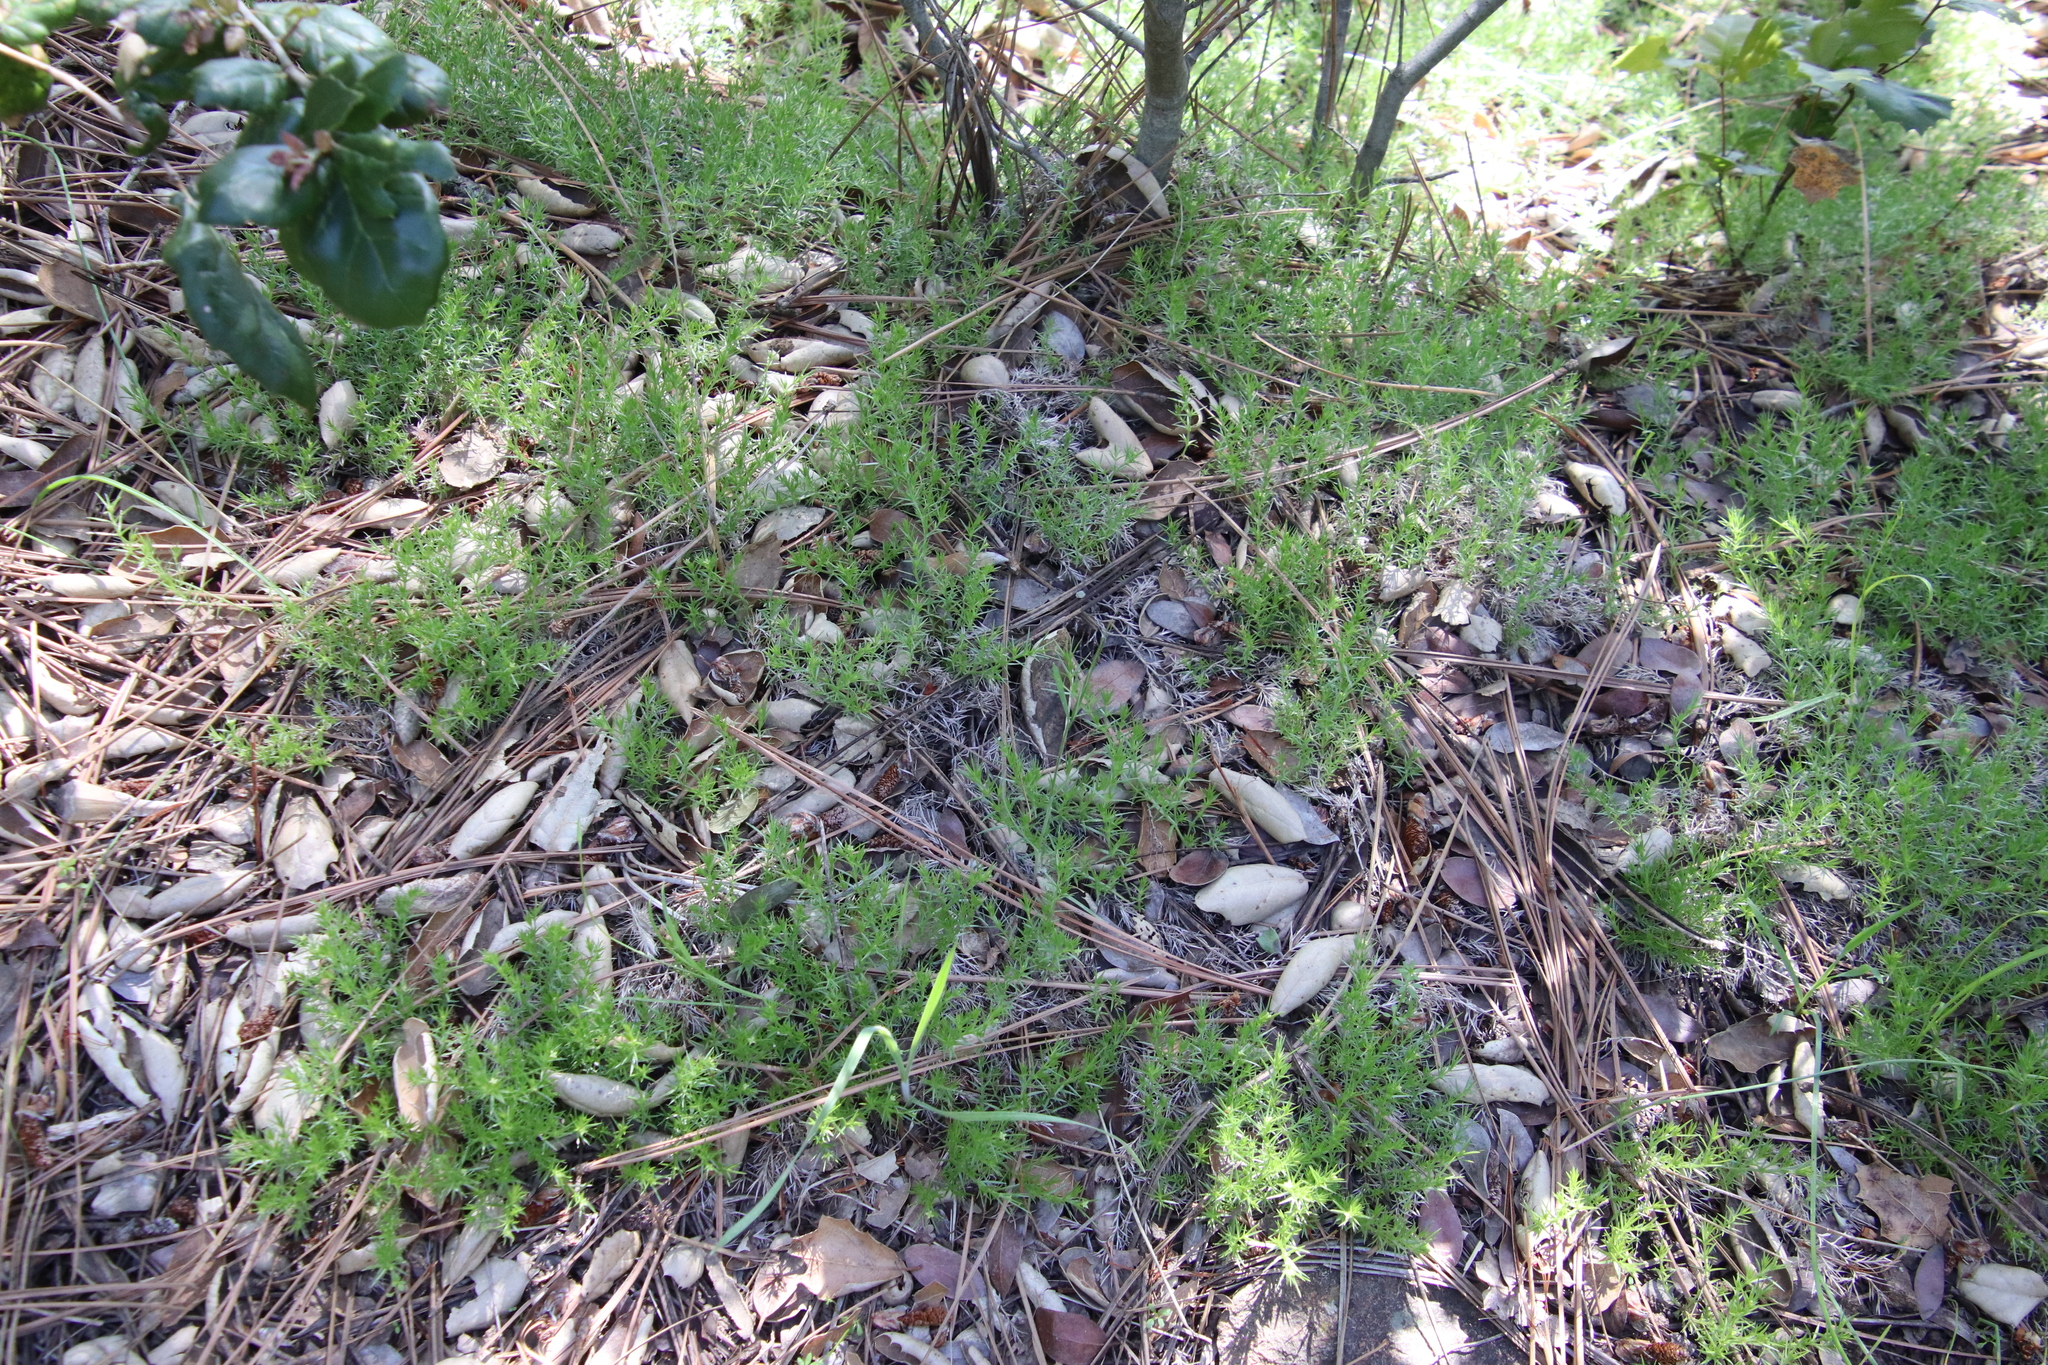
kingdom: Plantae
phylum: Tracheophyta
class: Magnoliopsida
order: Gentianales
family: Rubiaceae
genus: Galium
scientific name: Galium andrewsii
